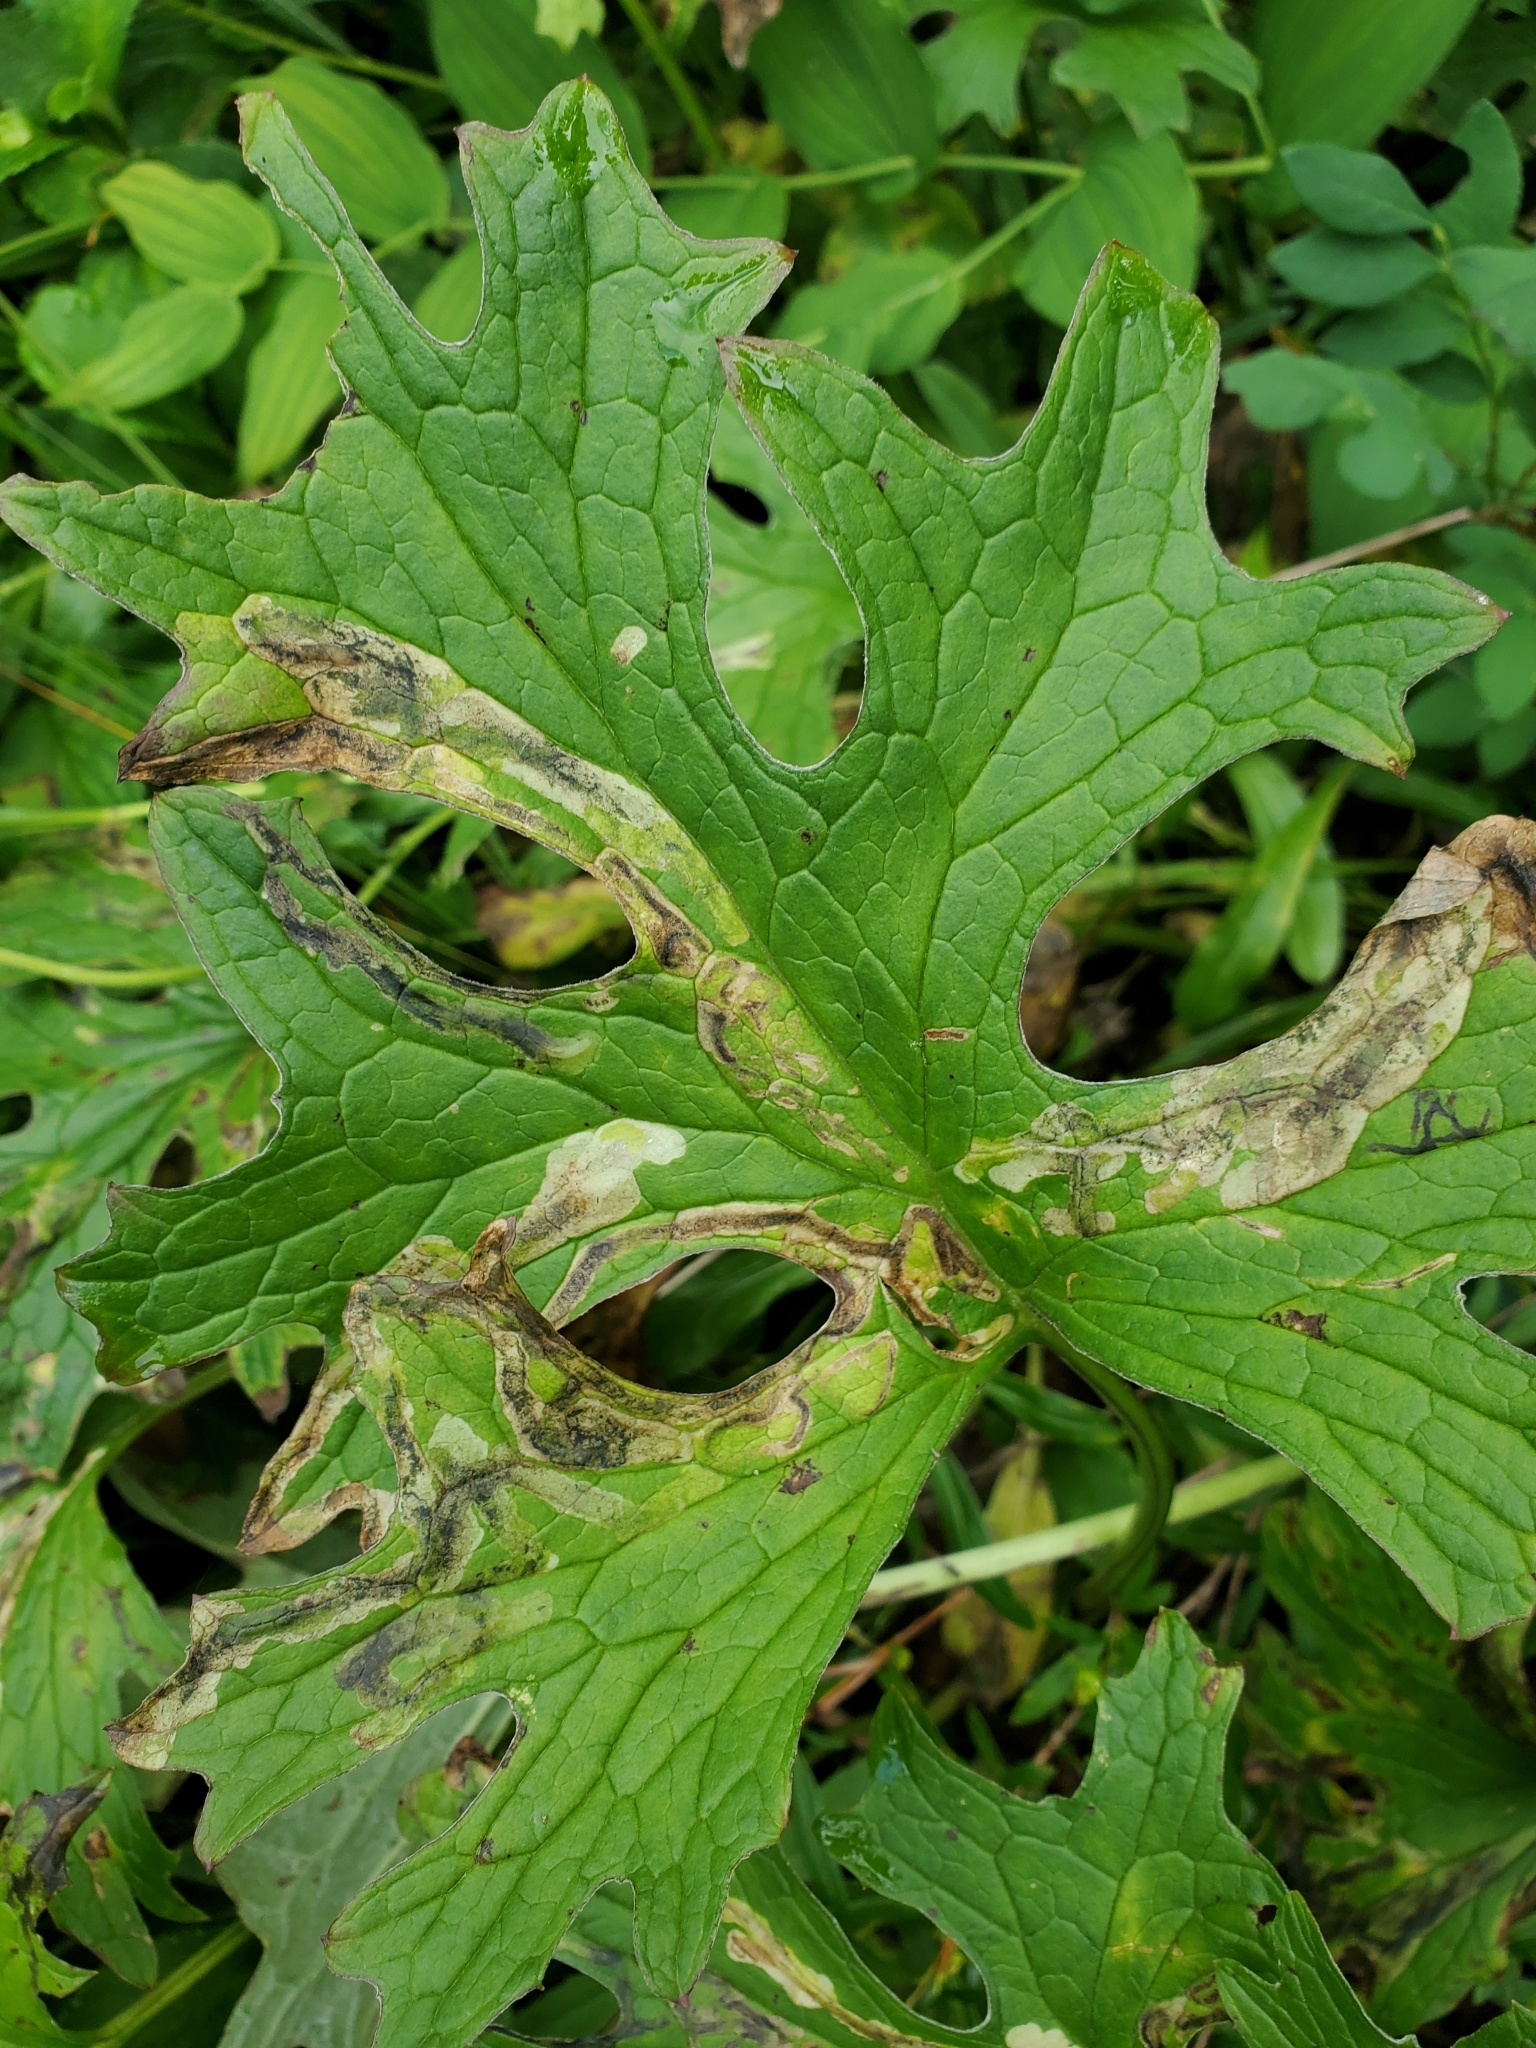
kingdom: Plantae
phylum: Tracheophyta
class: Magnoliopsida
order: Asterales
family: Asteraceae
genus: Petasites
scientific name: Petasites frigidus
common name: Arctic butterbur
